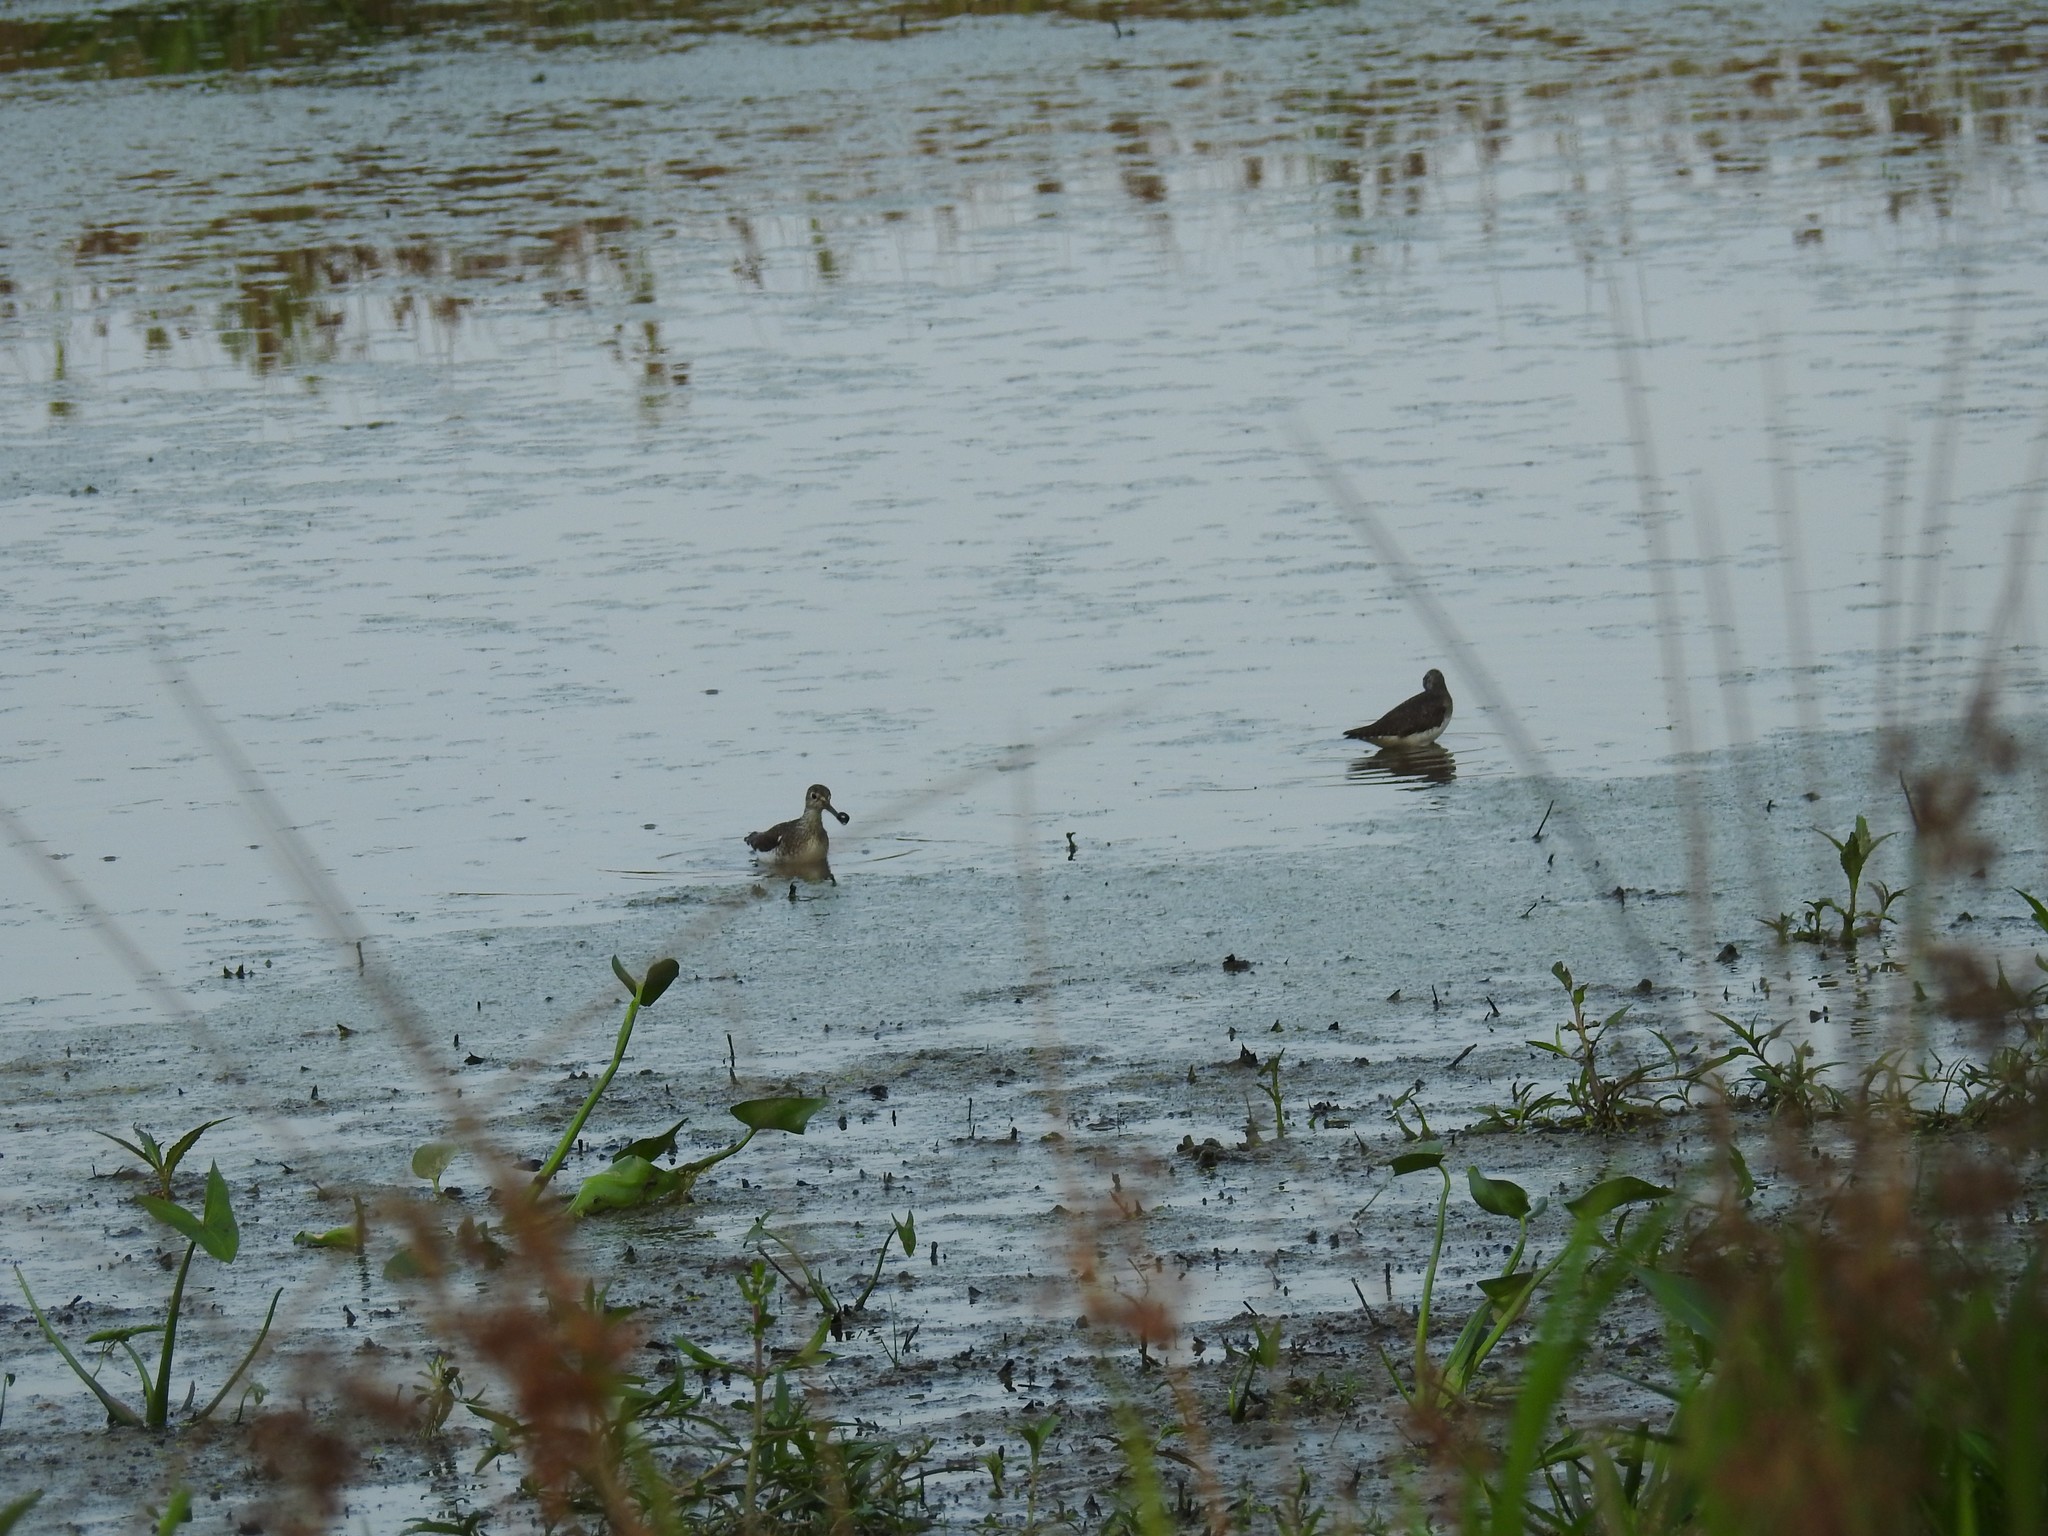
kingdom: Animalia
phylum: Chordata
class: Aves
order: Charadriiformes
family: Scolopacidae
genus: Tringa
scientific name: Tringa solitaria
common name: Solitary sandpiper
